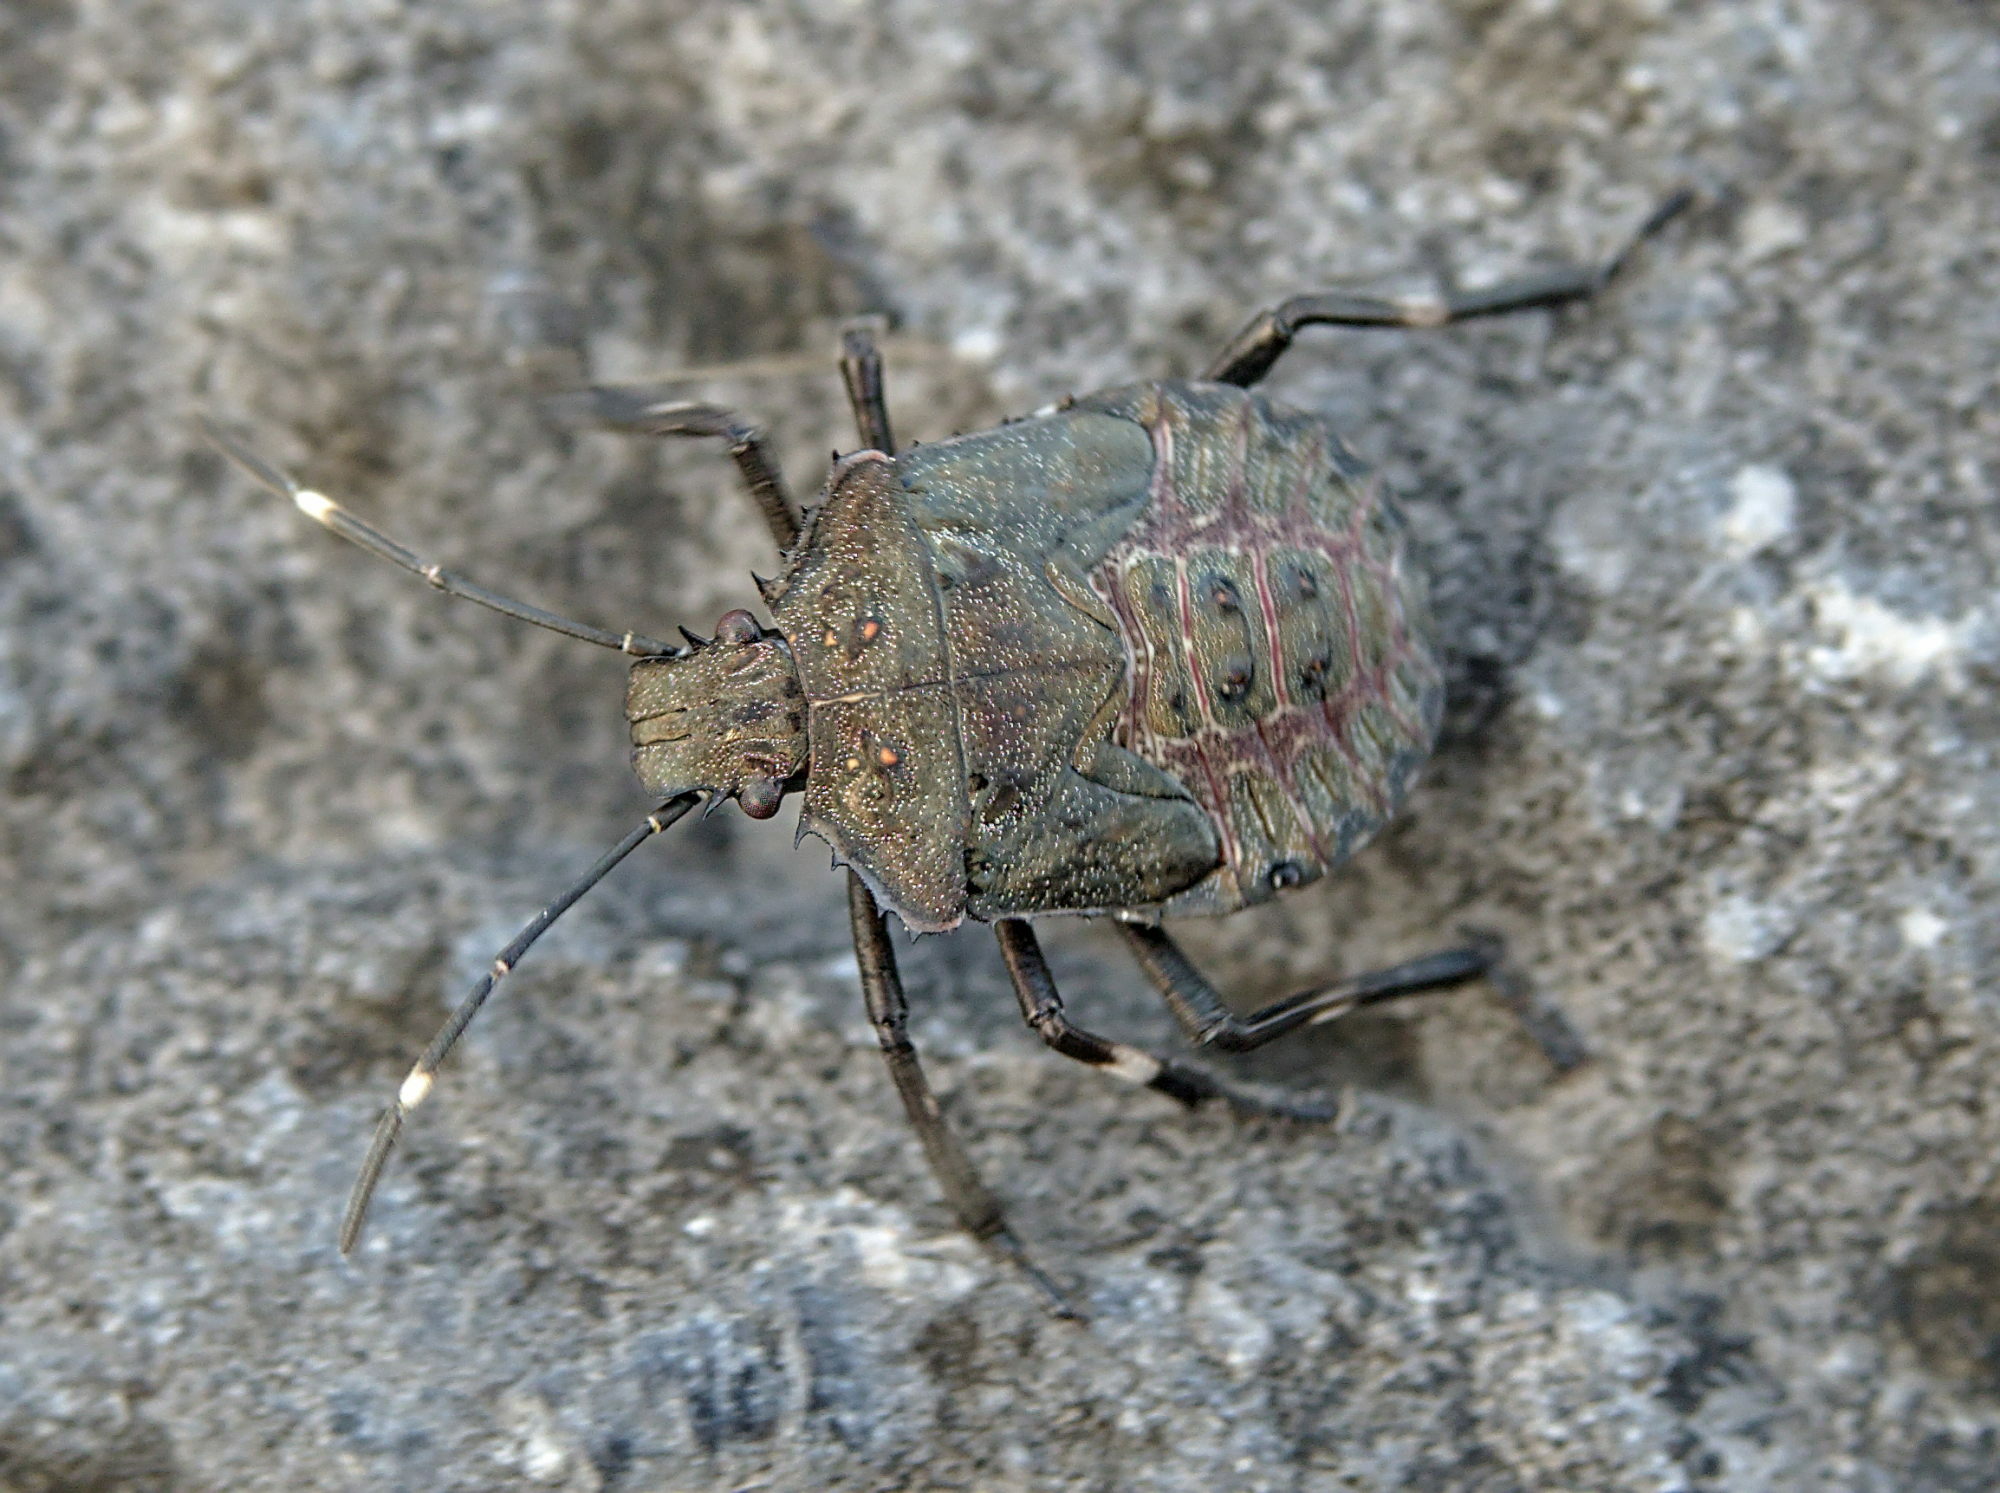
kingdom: Animalia
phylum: Arthropoda
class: Insecta
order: Hemiptera
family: Pentatomidae
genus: Halyomorpha
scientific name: Halyomorpha halys
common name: Brown marmorated stink bug
